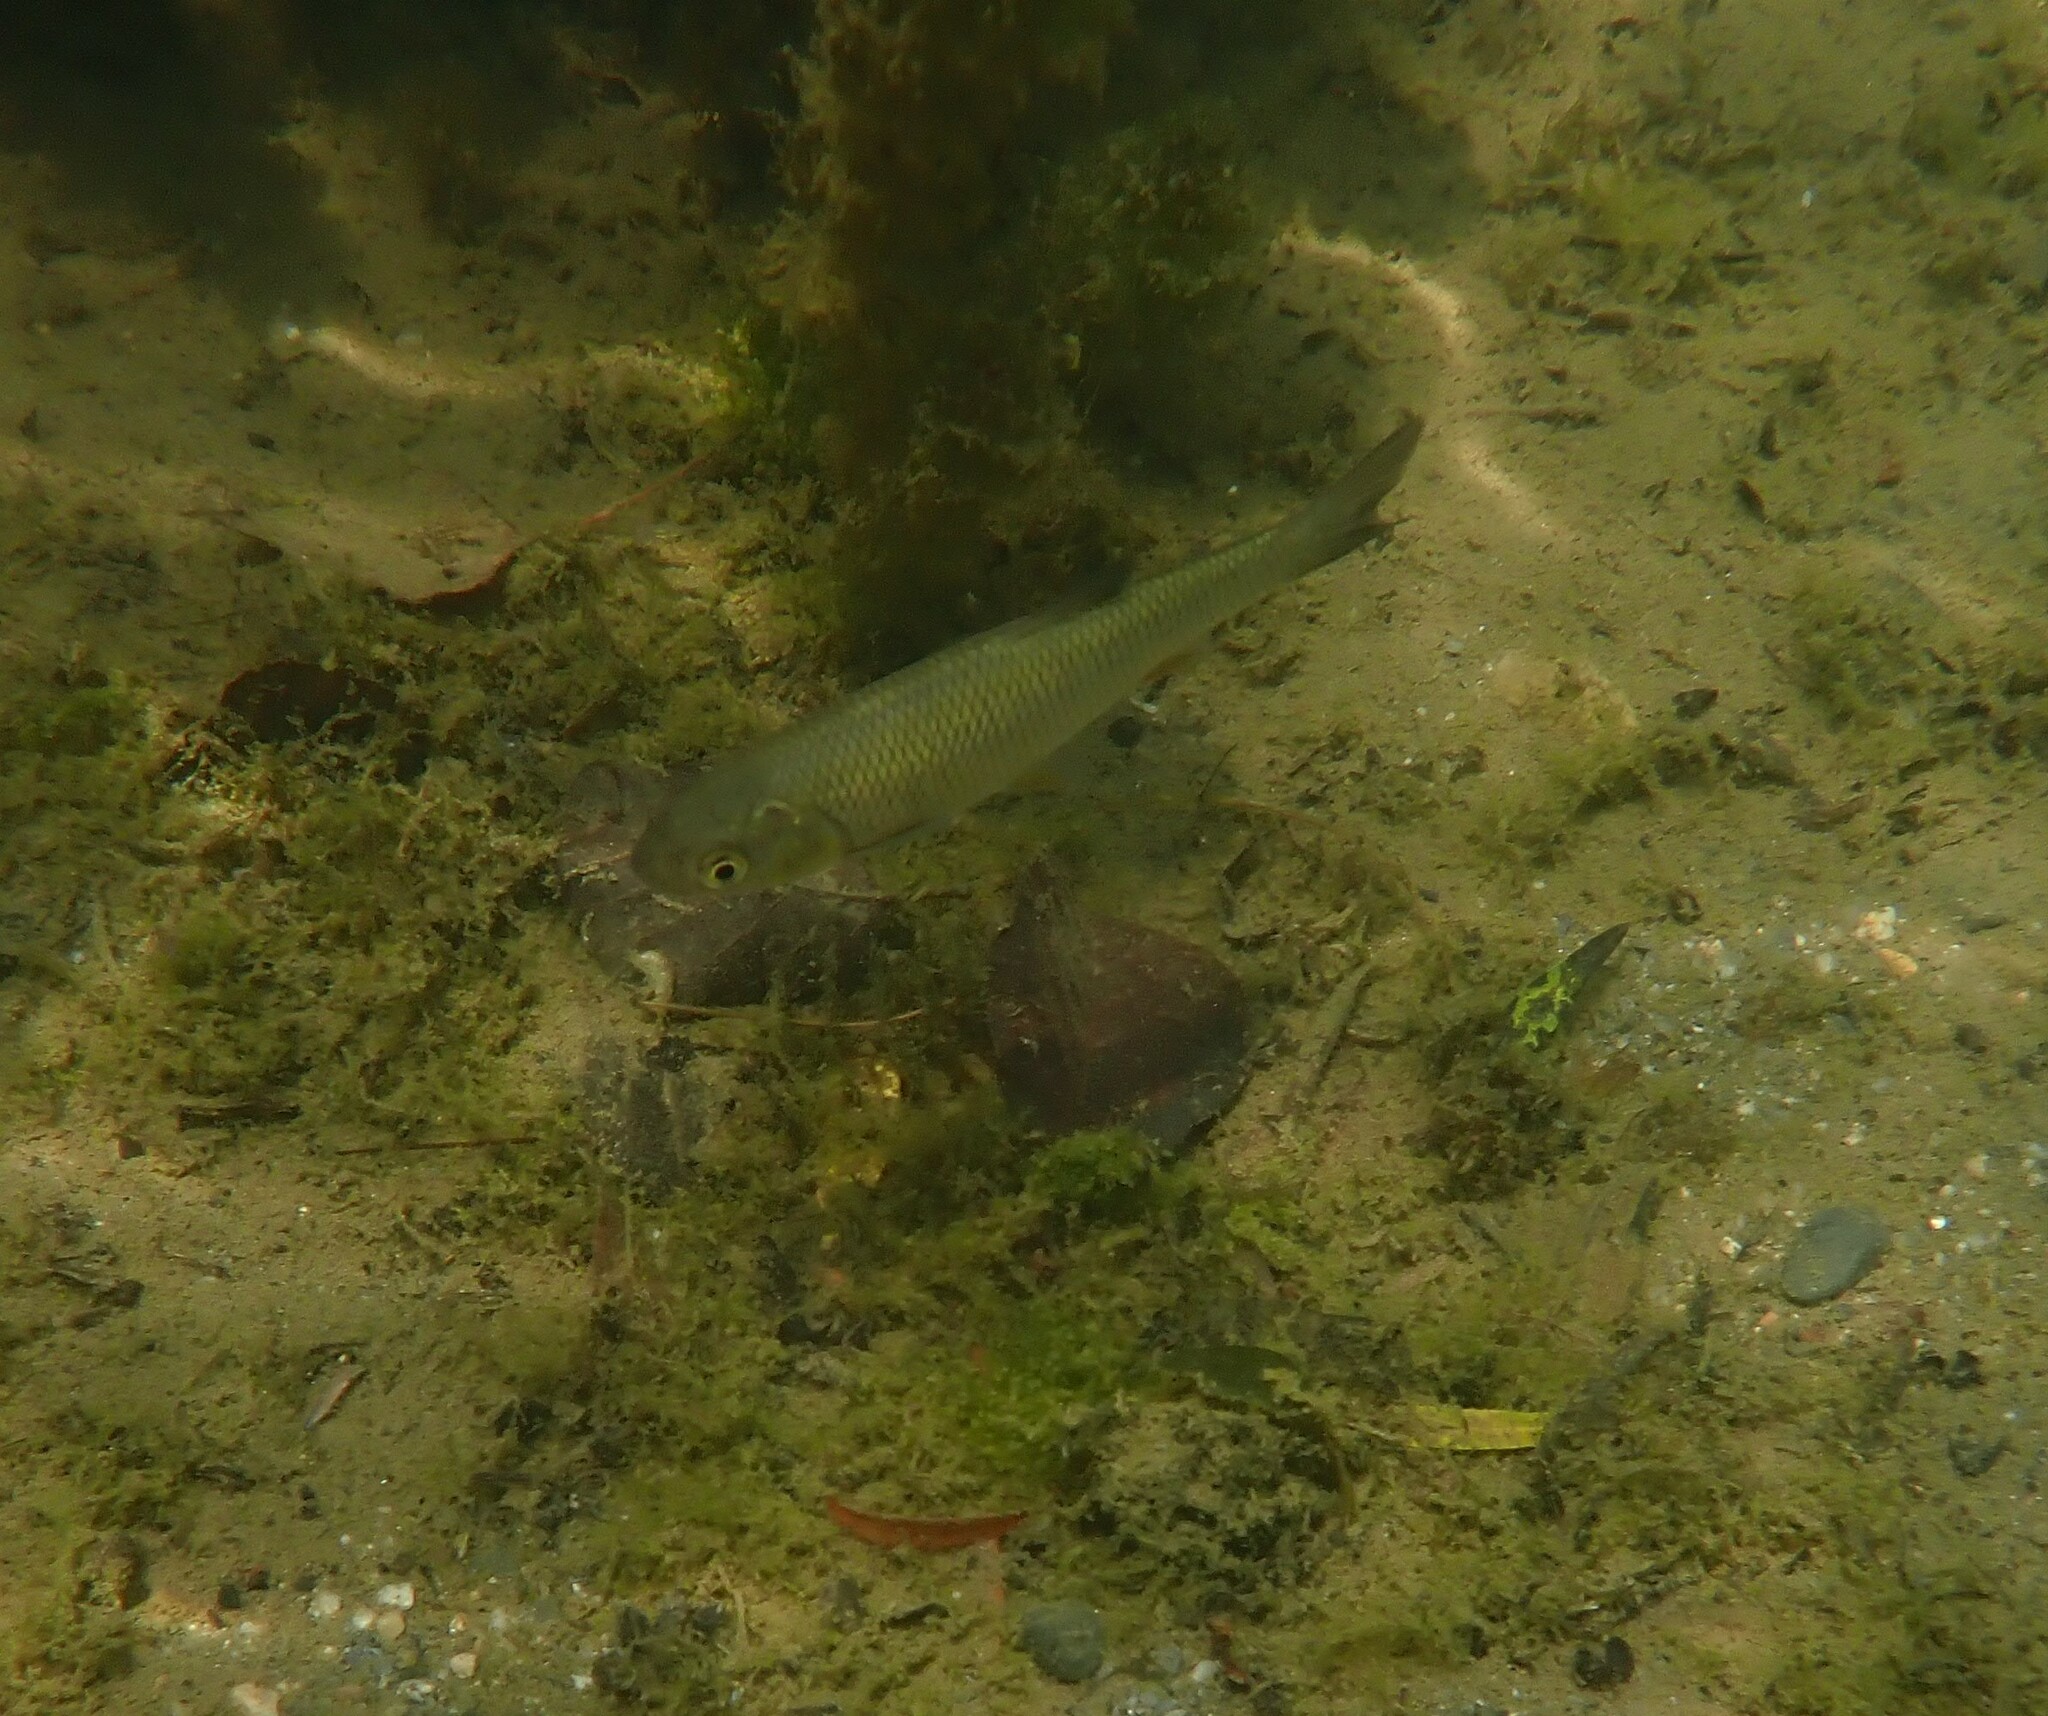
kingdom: Animalia
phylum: Chordata
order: Cypriniformes
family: Cyprinidae
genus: Squalius
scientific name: Squalius cephalus
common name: Chub
